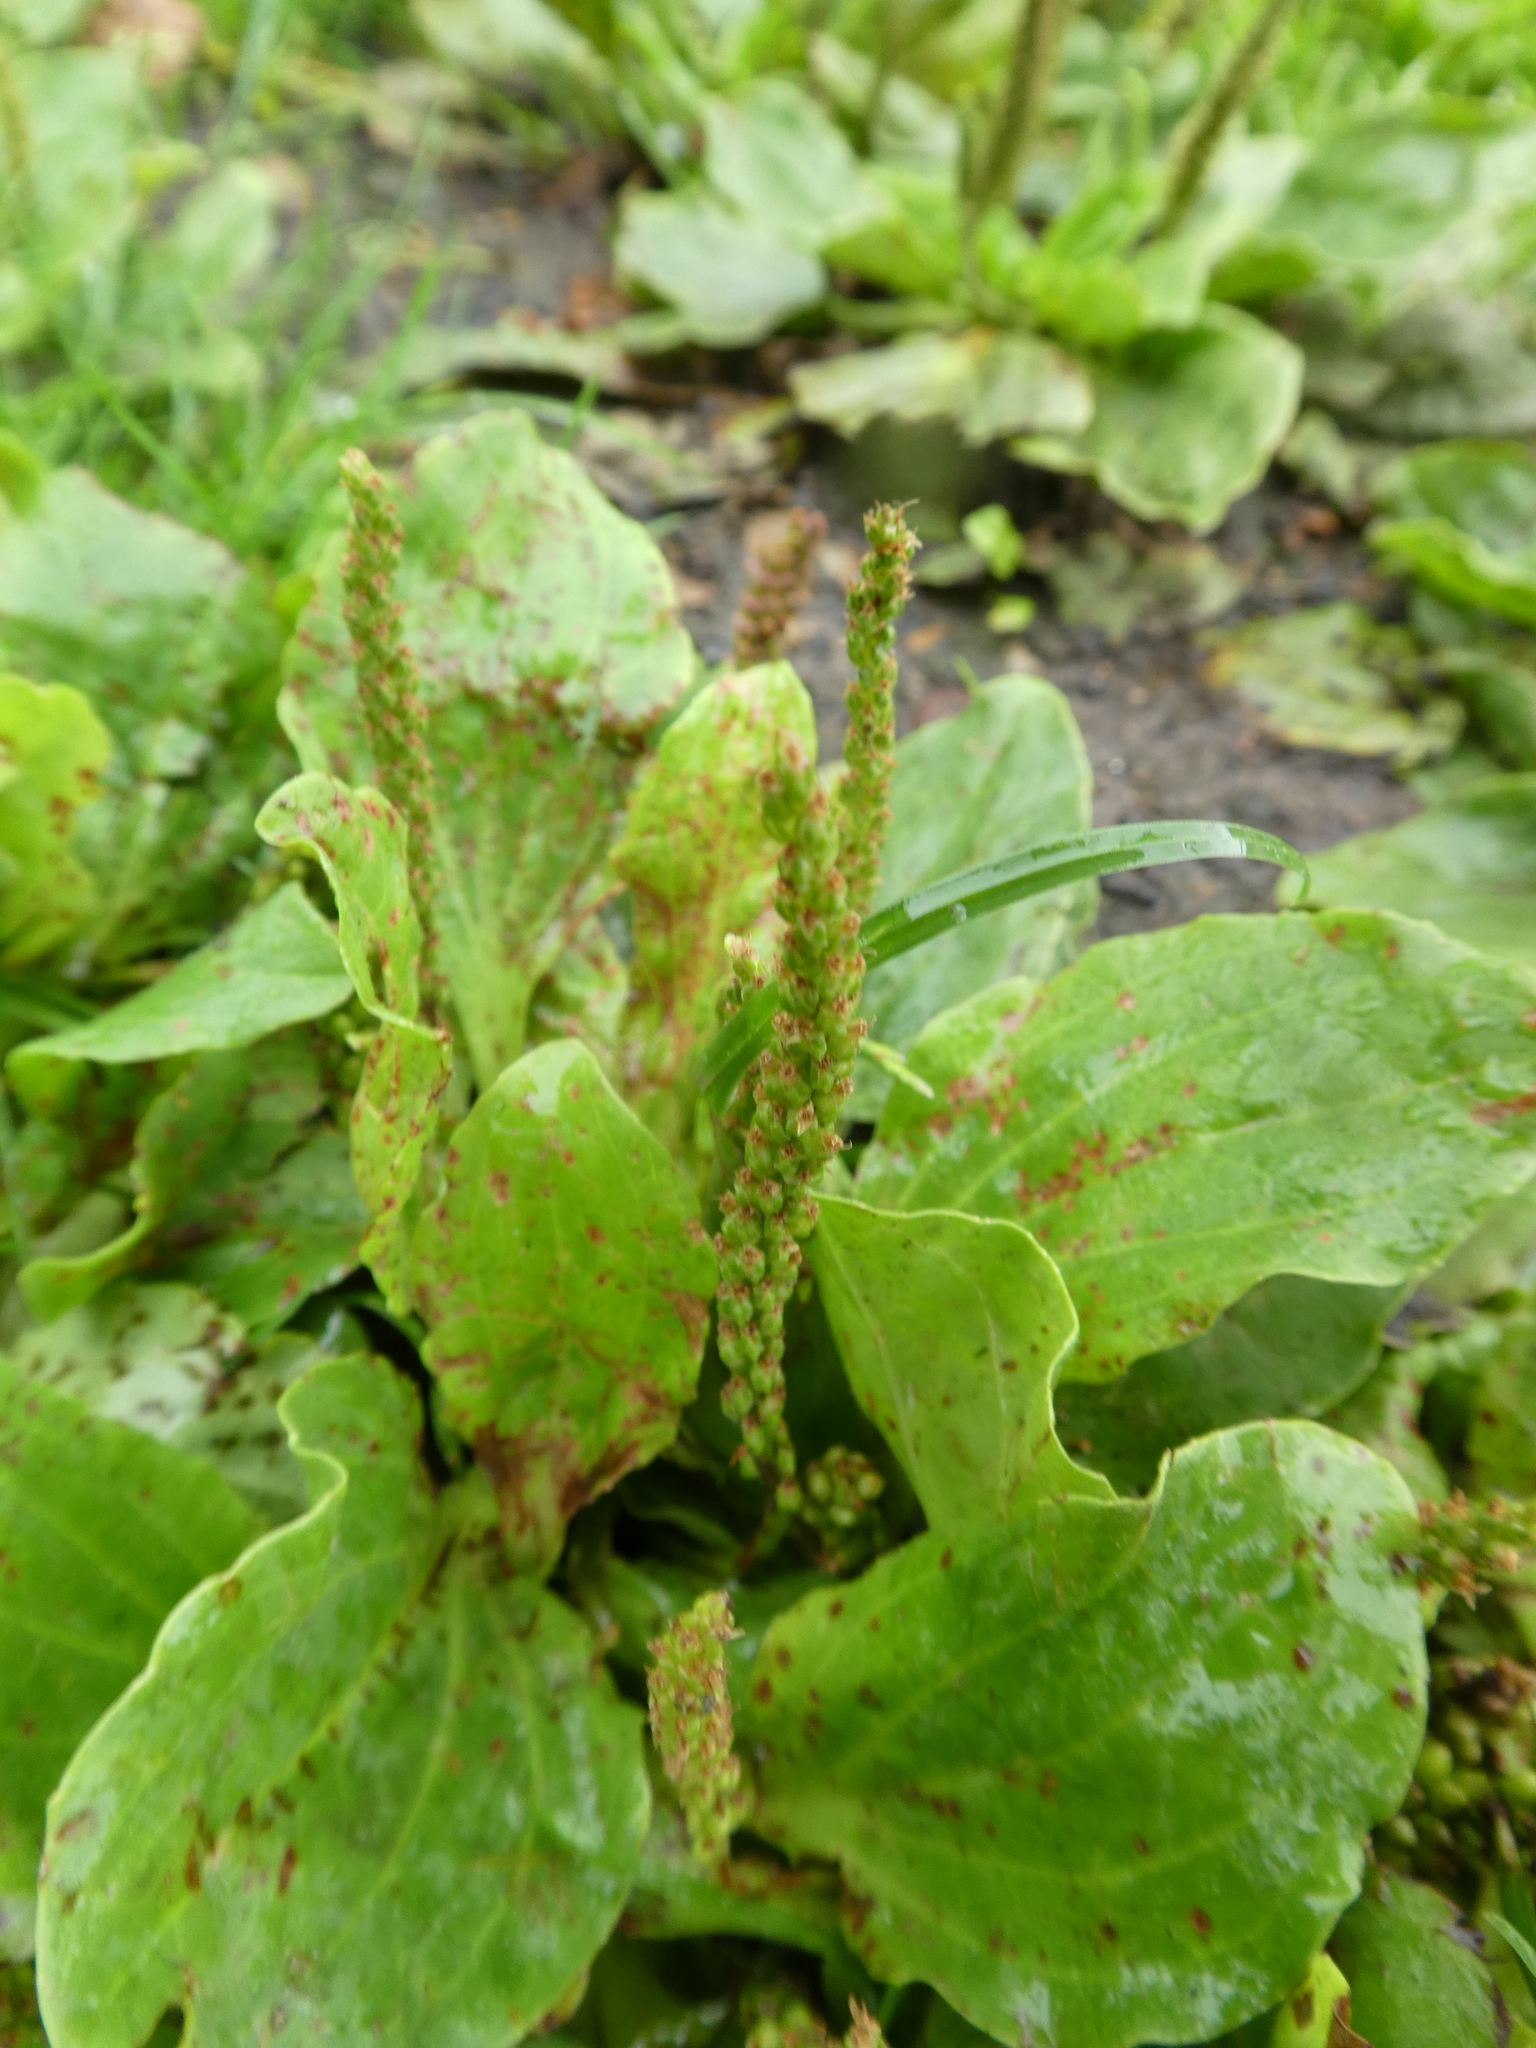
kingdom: Plantae
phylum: Tracheophyta
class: Magnoliopsida
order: Lamiales
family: Plantaginaceae
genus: Plantago
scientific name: Plantago major
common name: Common plantain
